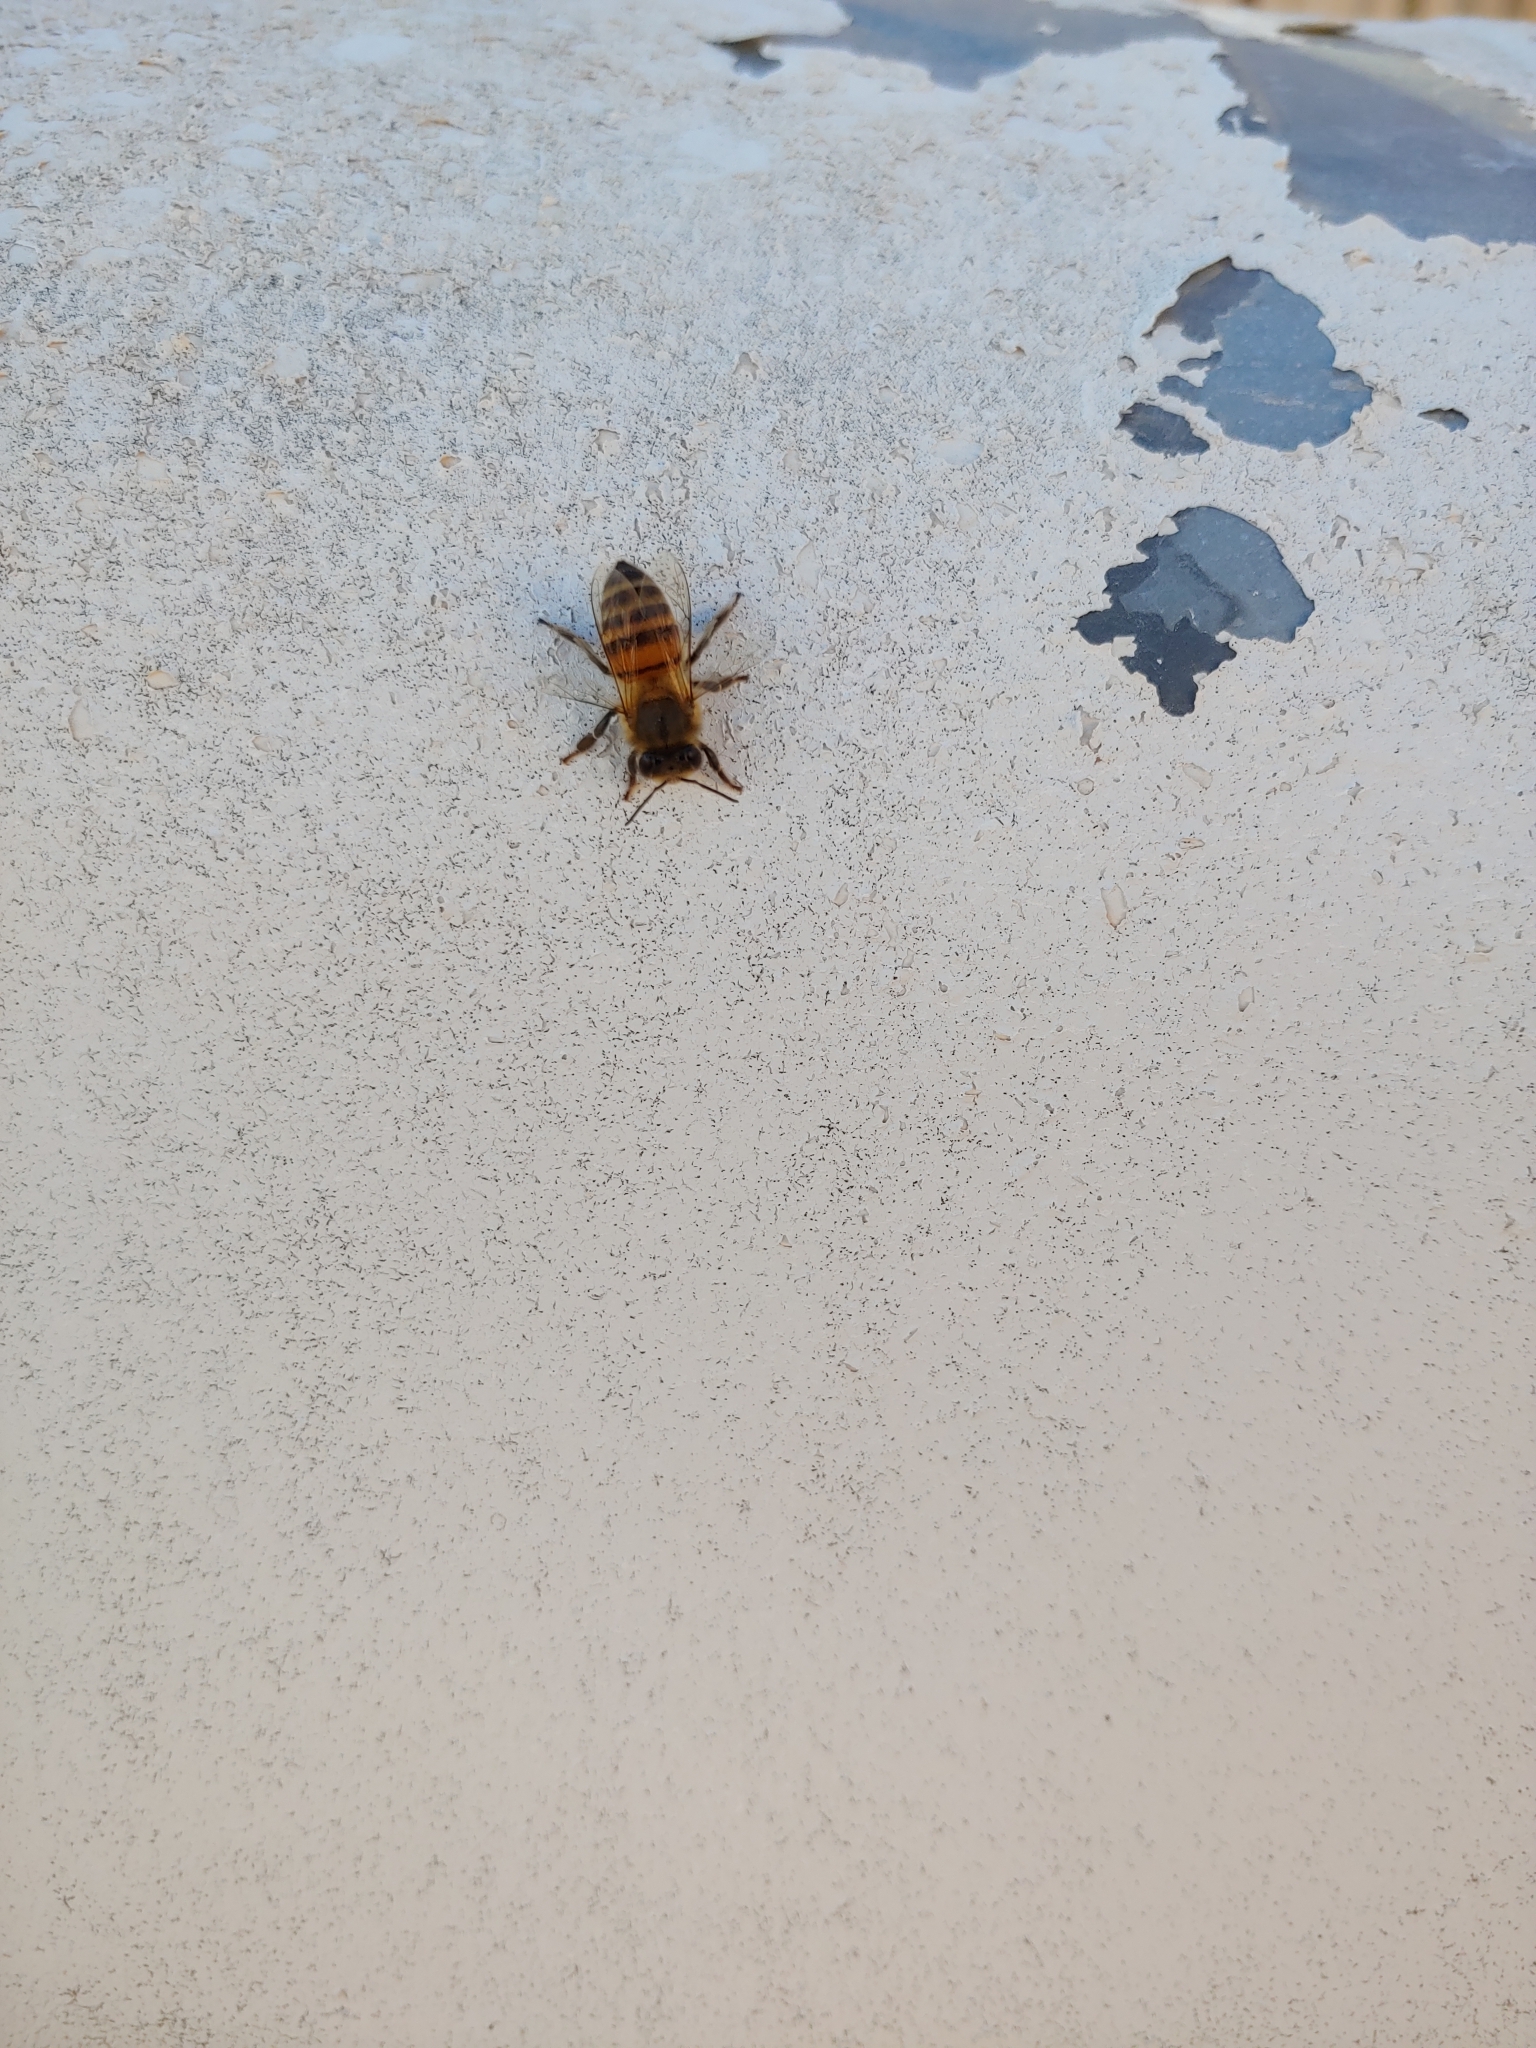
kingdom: Animalia
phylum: Arthropoda
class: Insecta
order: Hymenoptera
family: Apidae
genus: Apis
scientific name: Apis mellifera
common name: Honey bee
